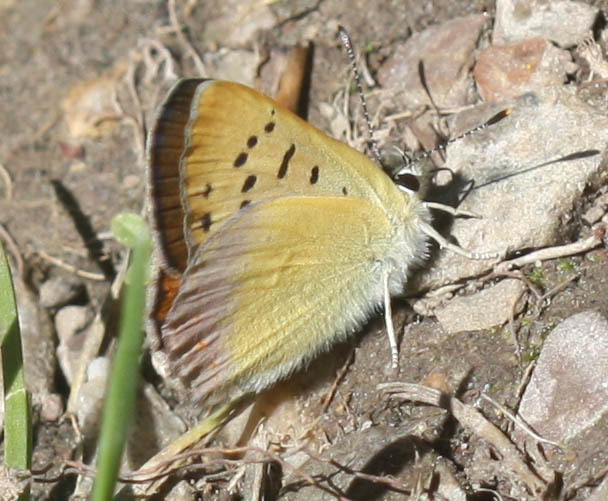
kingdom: Animalia
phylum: Arthropoda
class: Insecta
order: Lepidoptera
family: Lycaenidae
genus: Tharsalea
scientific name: Tharsalea nivalis
